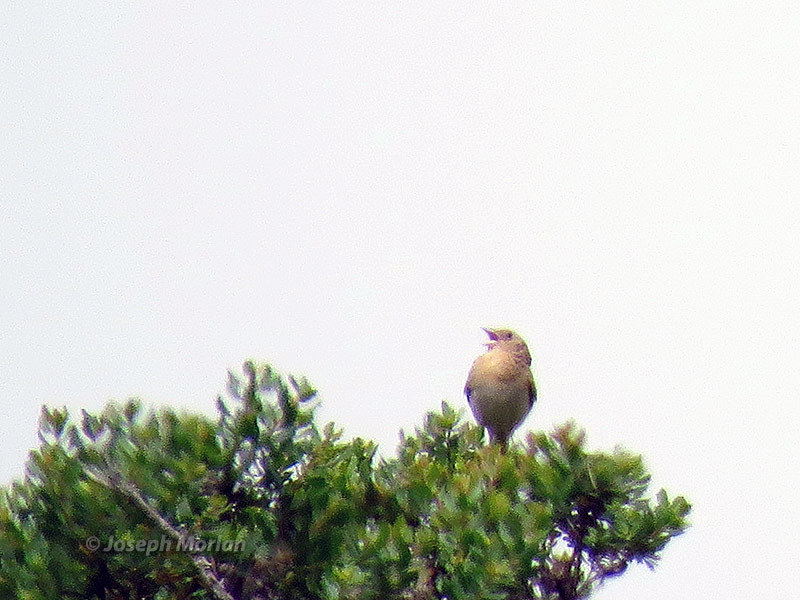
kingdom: Animalia
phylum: Chordata
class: Aves
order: Passeriformes
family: Passerellidae
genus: Ammodramus
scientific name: Ammodramus savannarum
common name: Grasshopper sparrow
